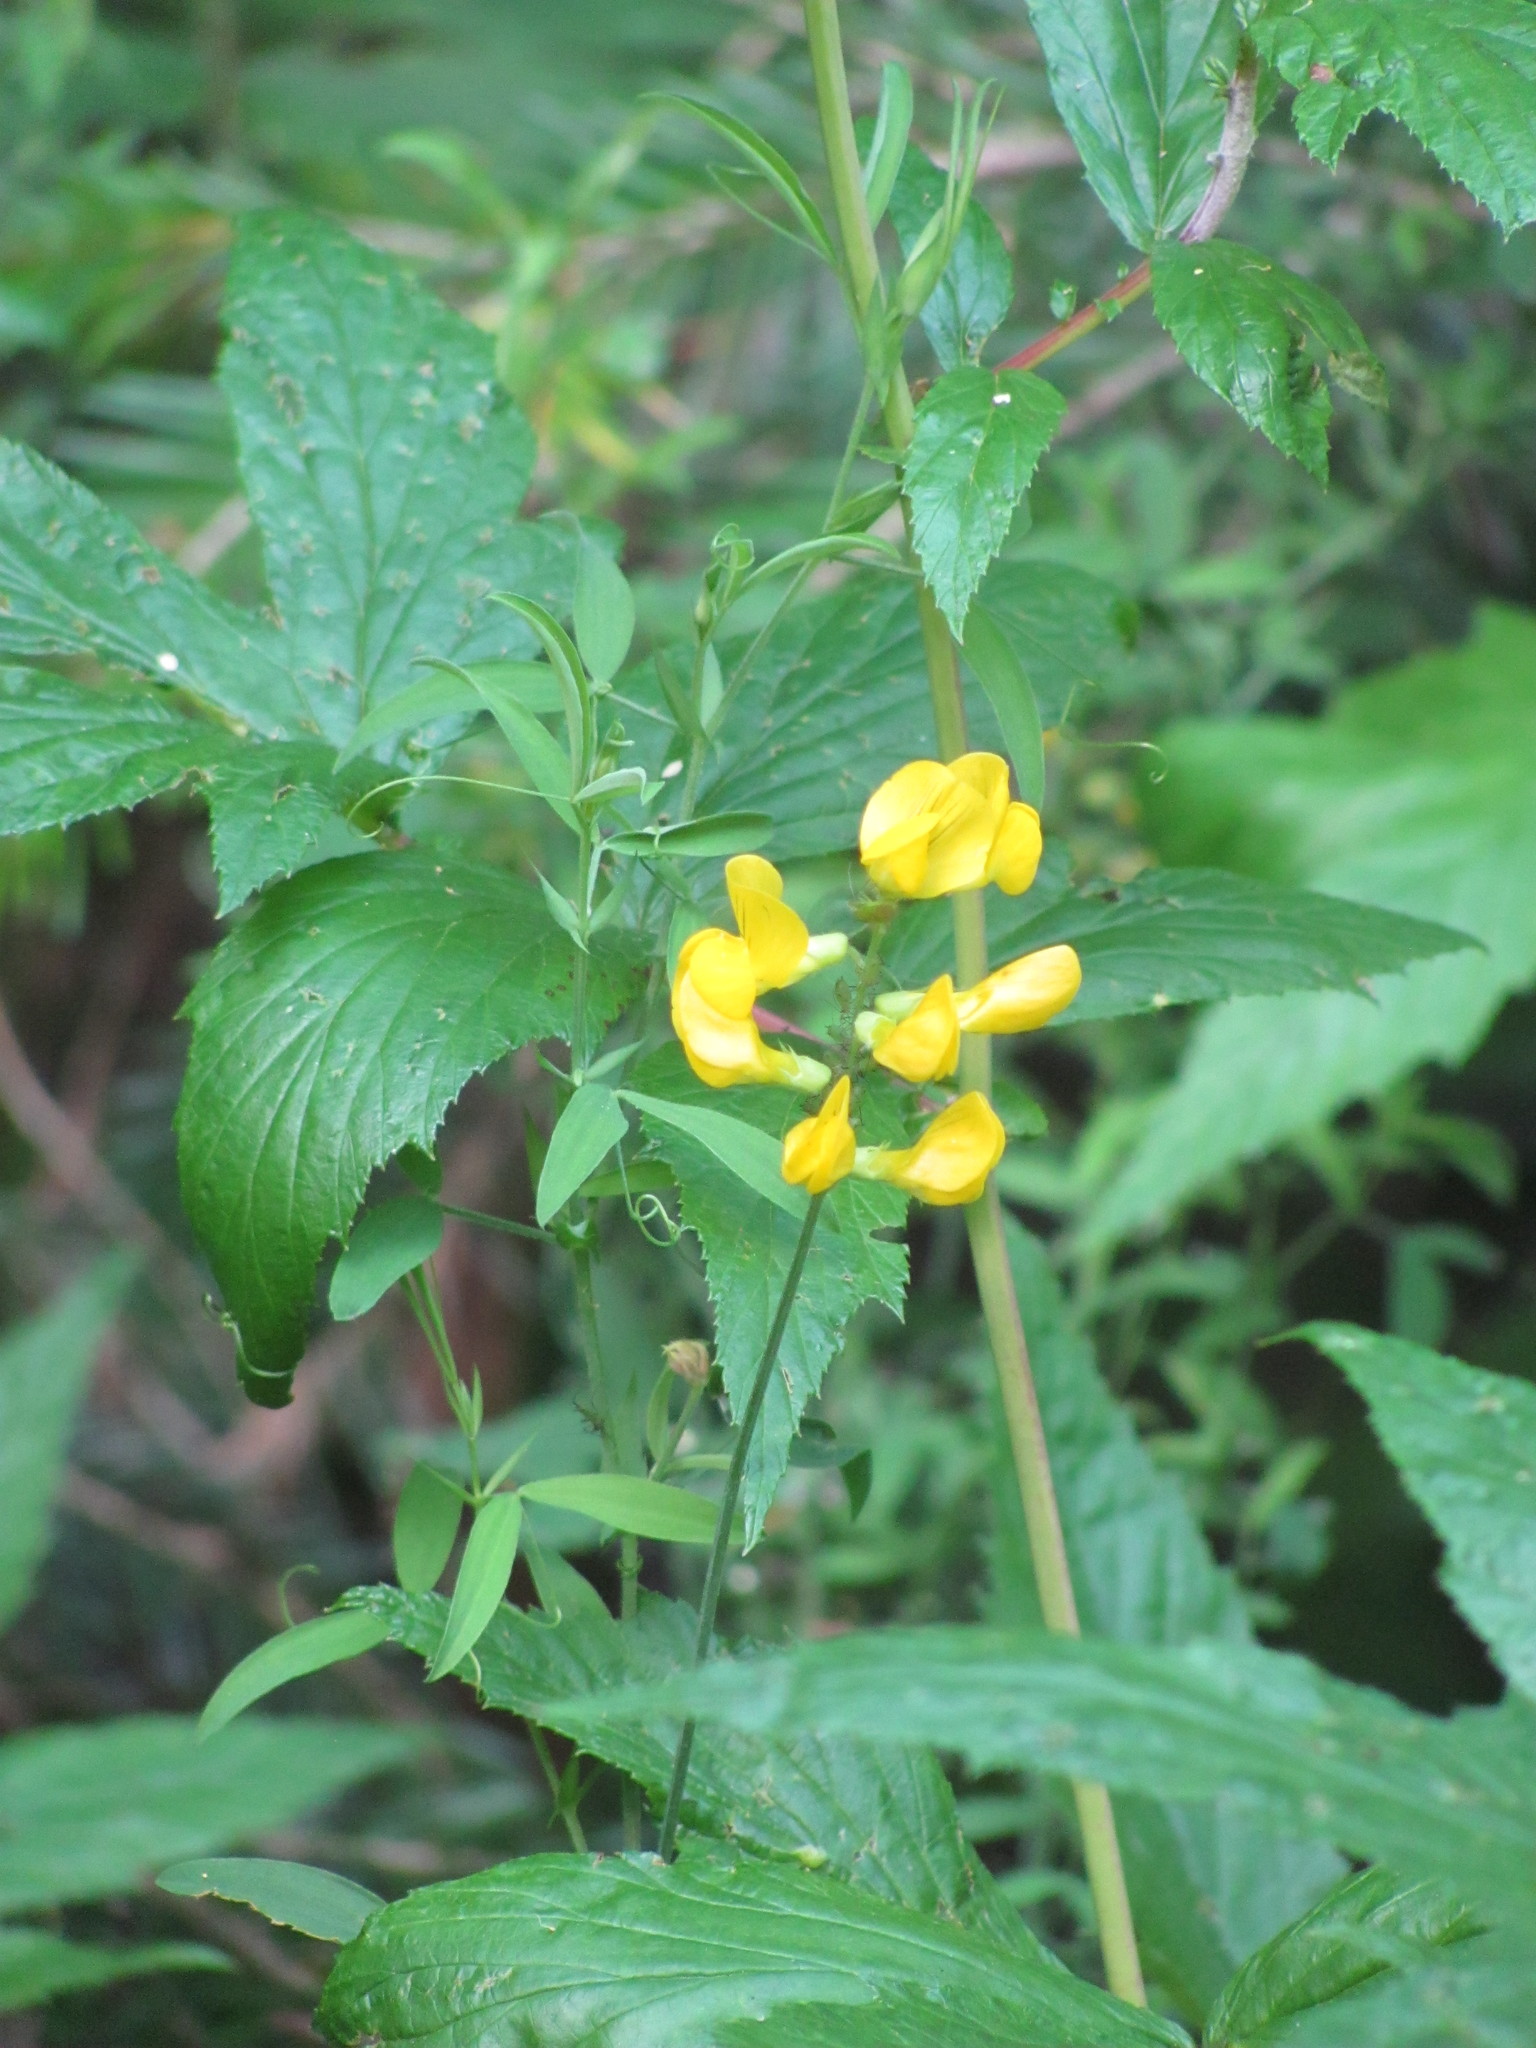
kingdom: Plantae
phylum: Tracheophyta
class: Magnoliopsida
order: Fabales
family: Fabaceae
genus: Lathyrus
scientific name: Lathyrus pratensis
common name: Meadow vetchling
